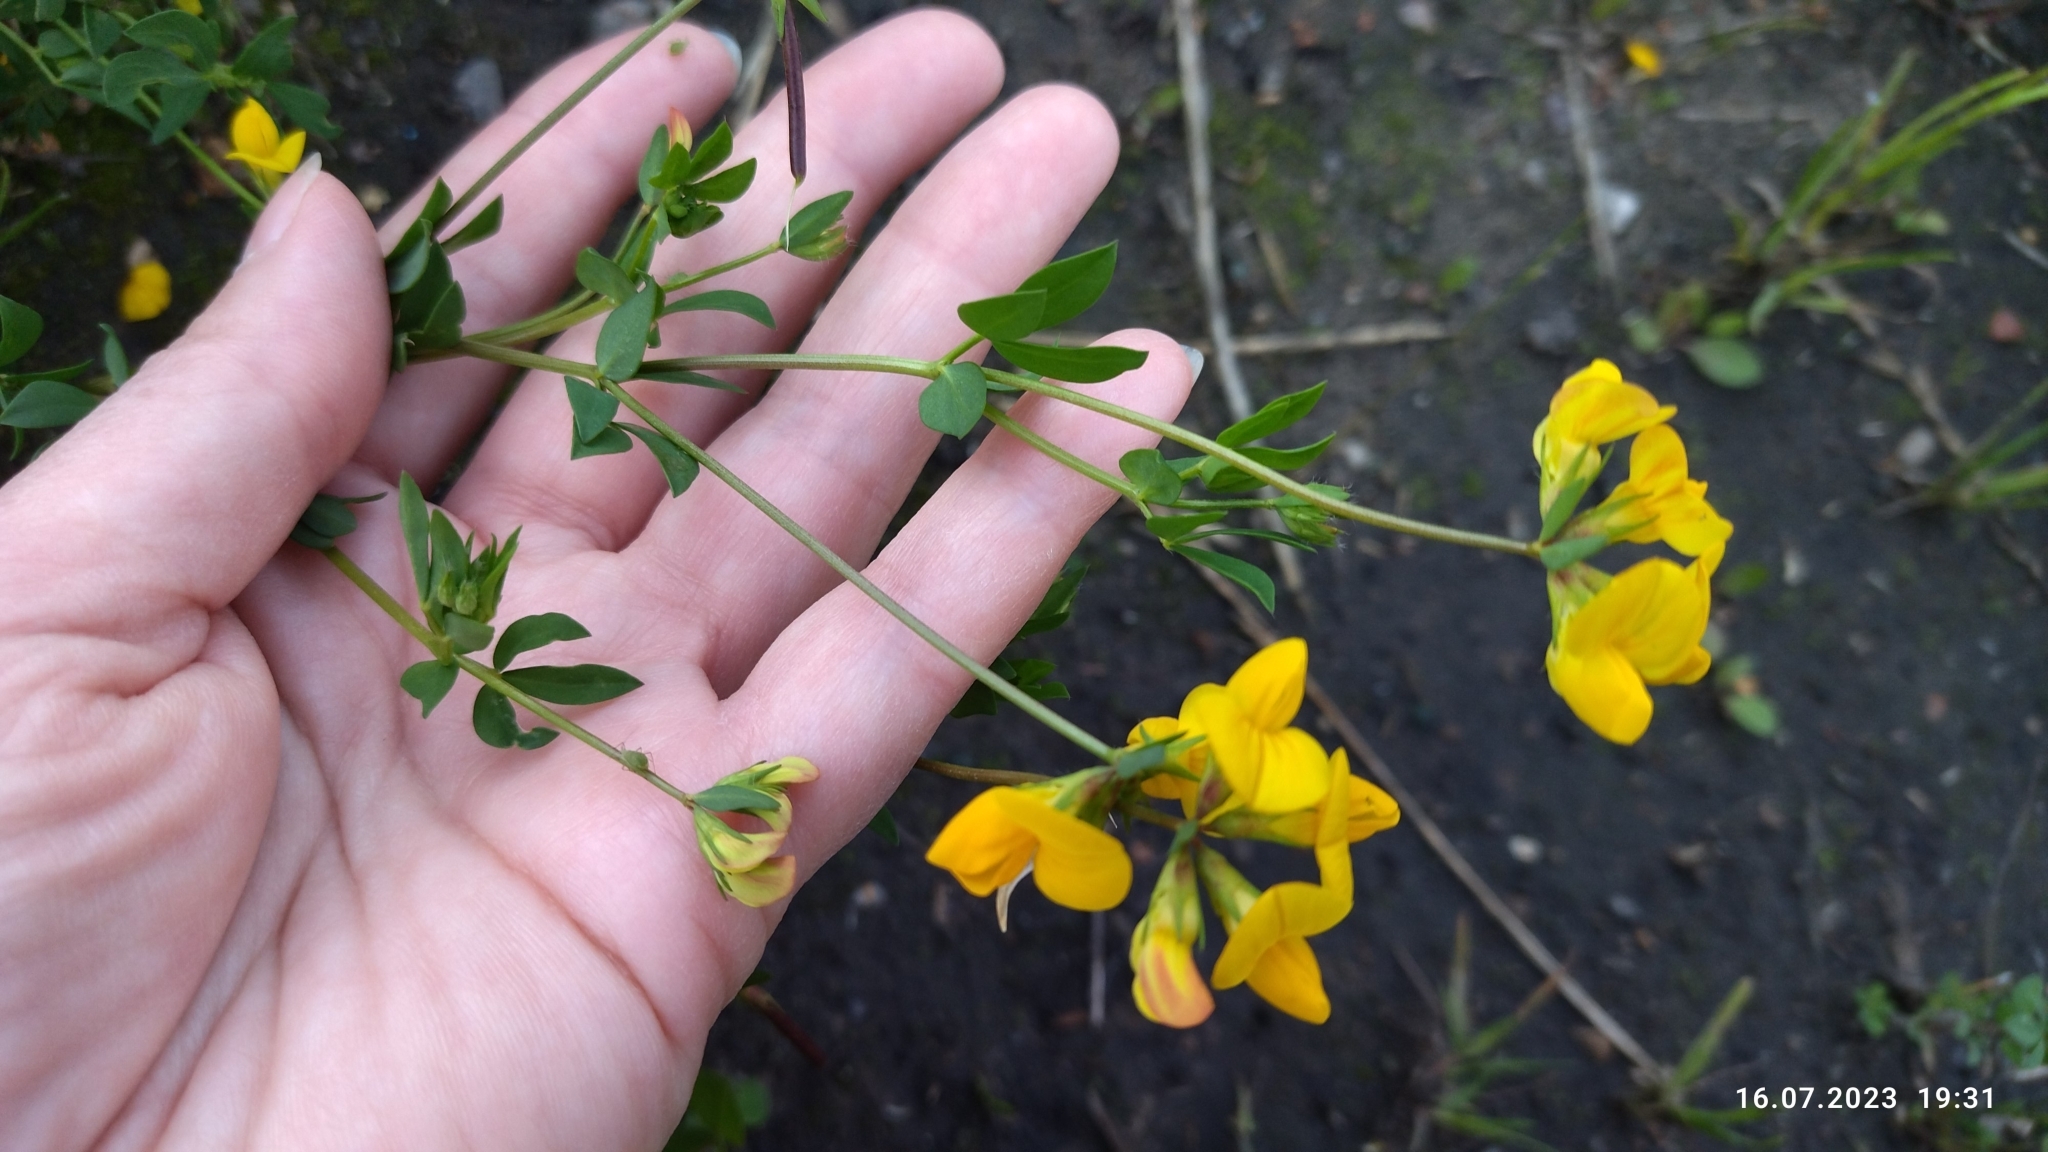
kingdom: Plantae
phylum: Tracheophyta
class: Magnoliopsida
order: Fabales
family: Fabaceae
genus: Lotus
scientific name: Lotus corniculatus
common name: Common bird's-foot-trefoil
